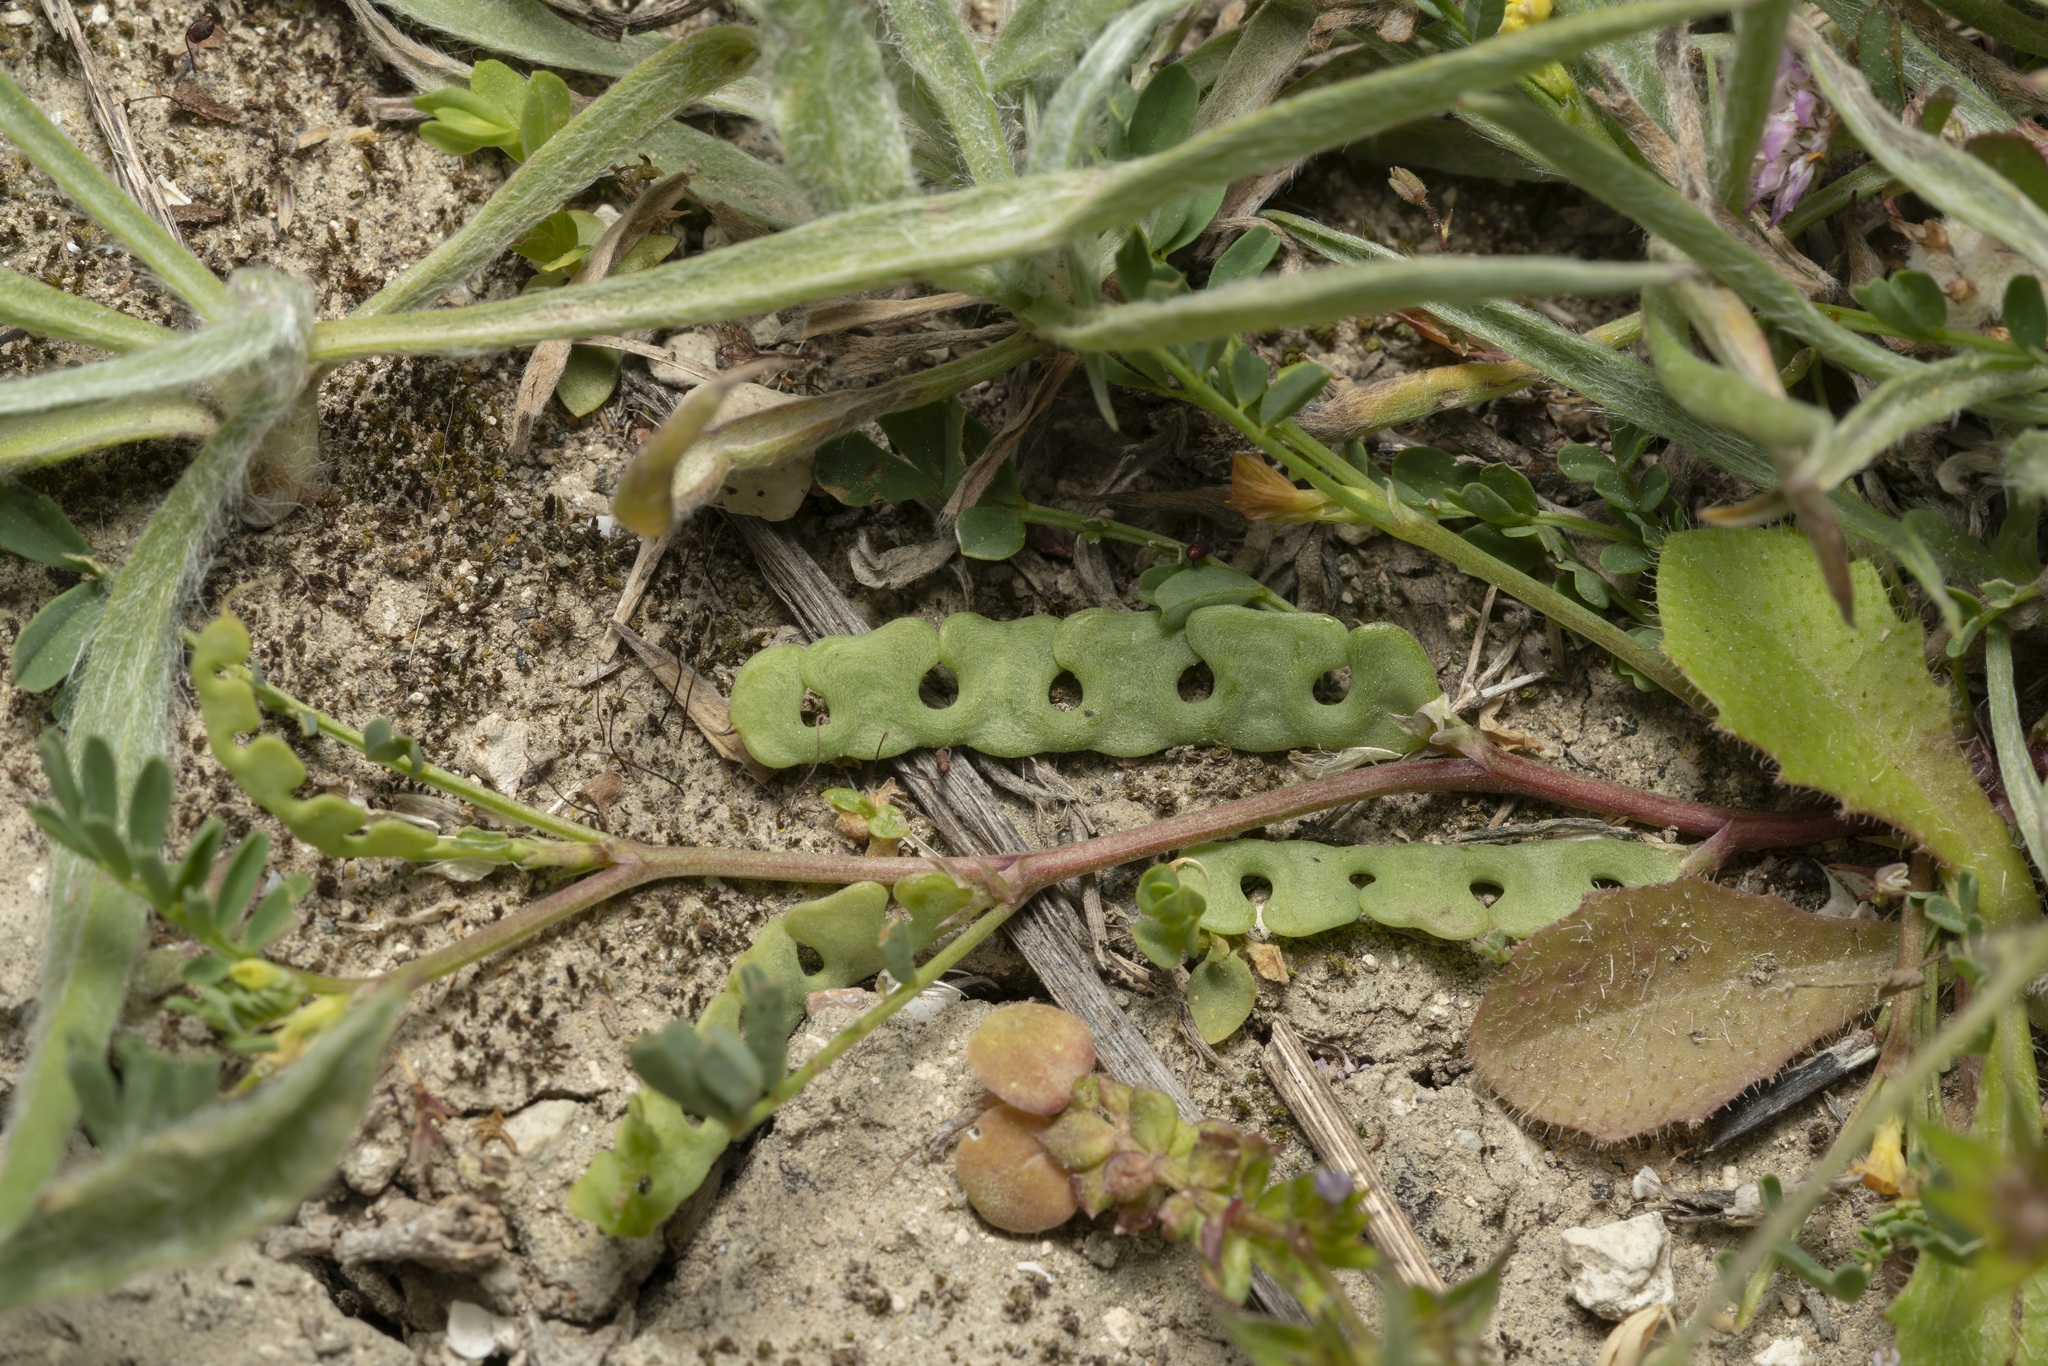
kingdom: Plantae
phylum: Tracheophyta
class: Magnoliopsida
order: Fabales
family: Fabaceae
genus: Hippocrepis
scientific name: Hippocrepis unisiliquosa
